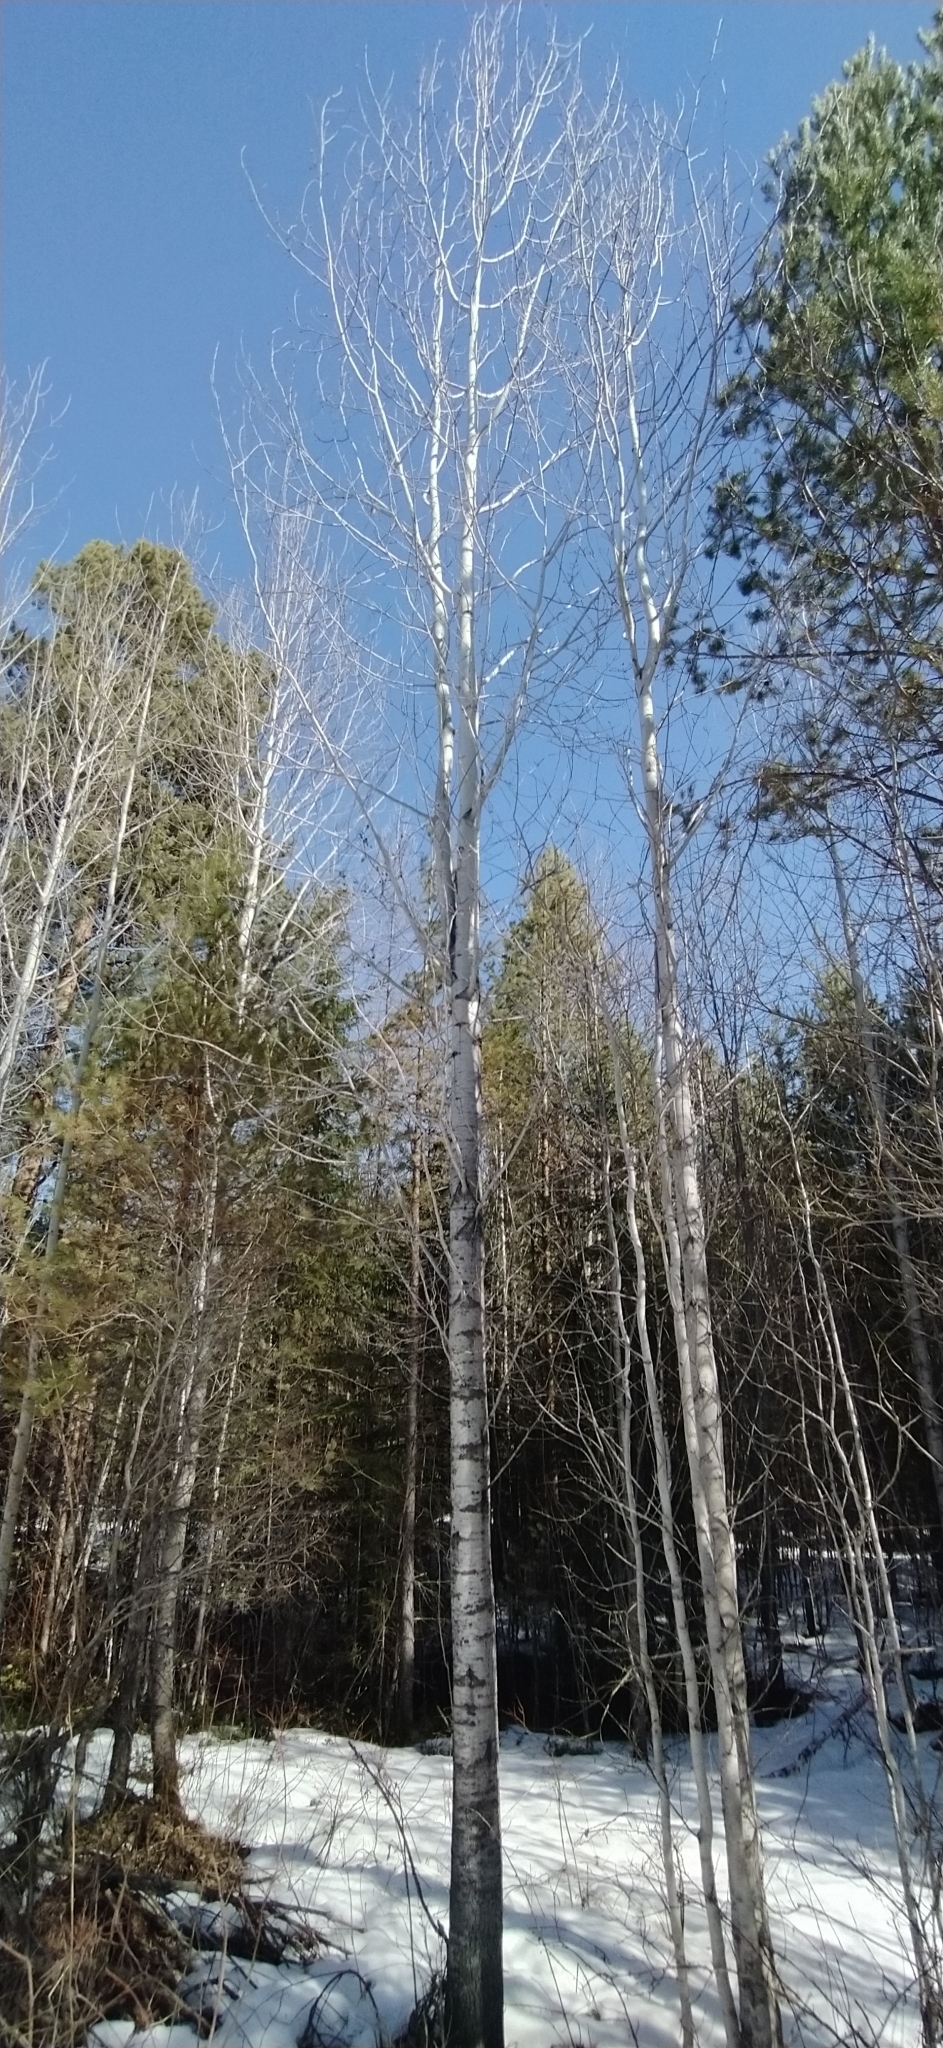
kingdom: Plantae
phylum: Tracheophyta
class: Magnoliopsida
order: Malpighiales
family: Salicaceae
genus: Populus
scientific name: Populus tremula
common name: European aspen
